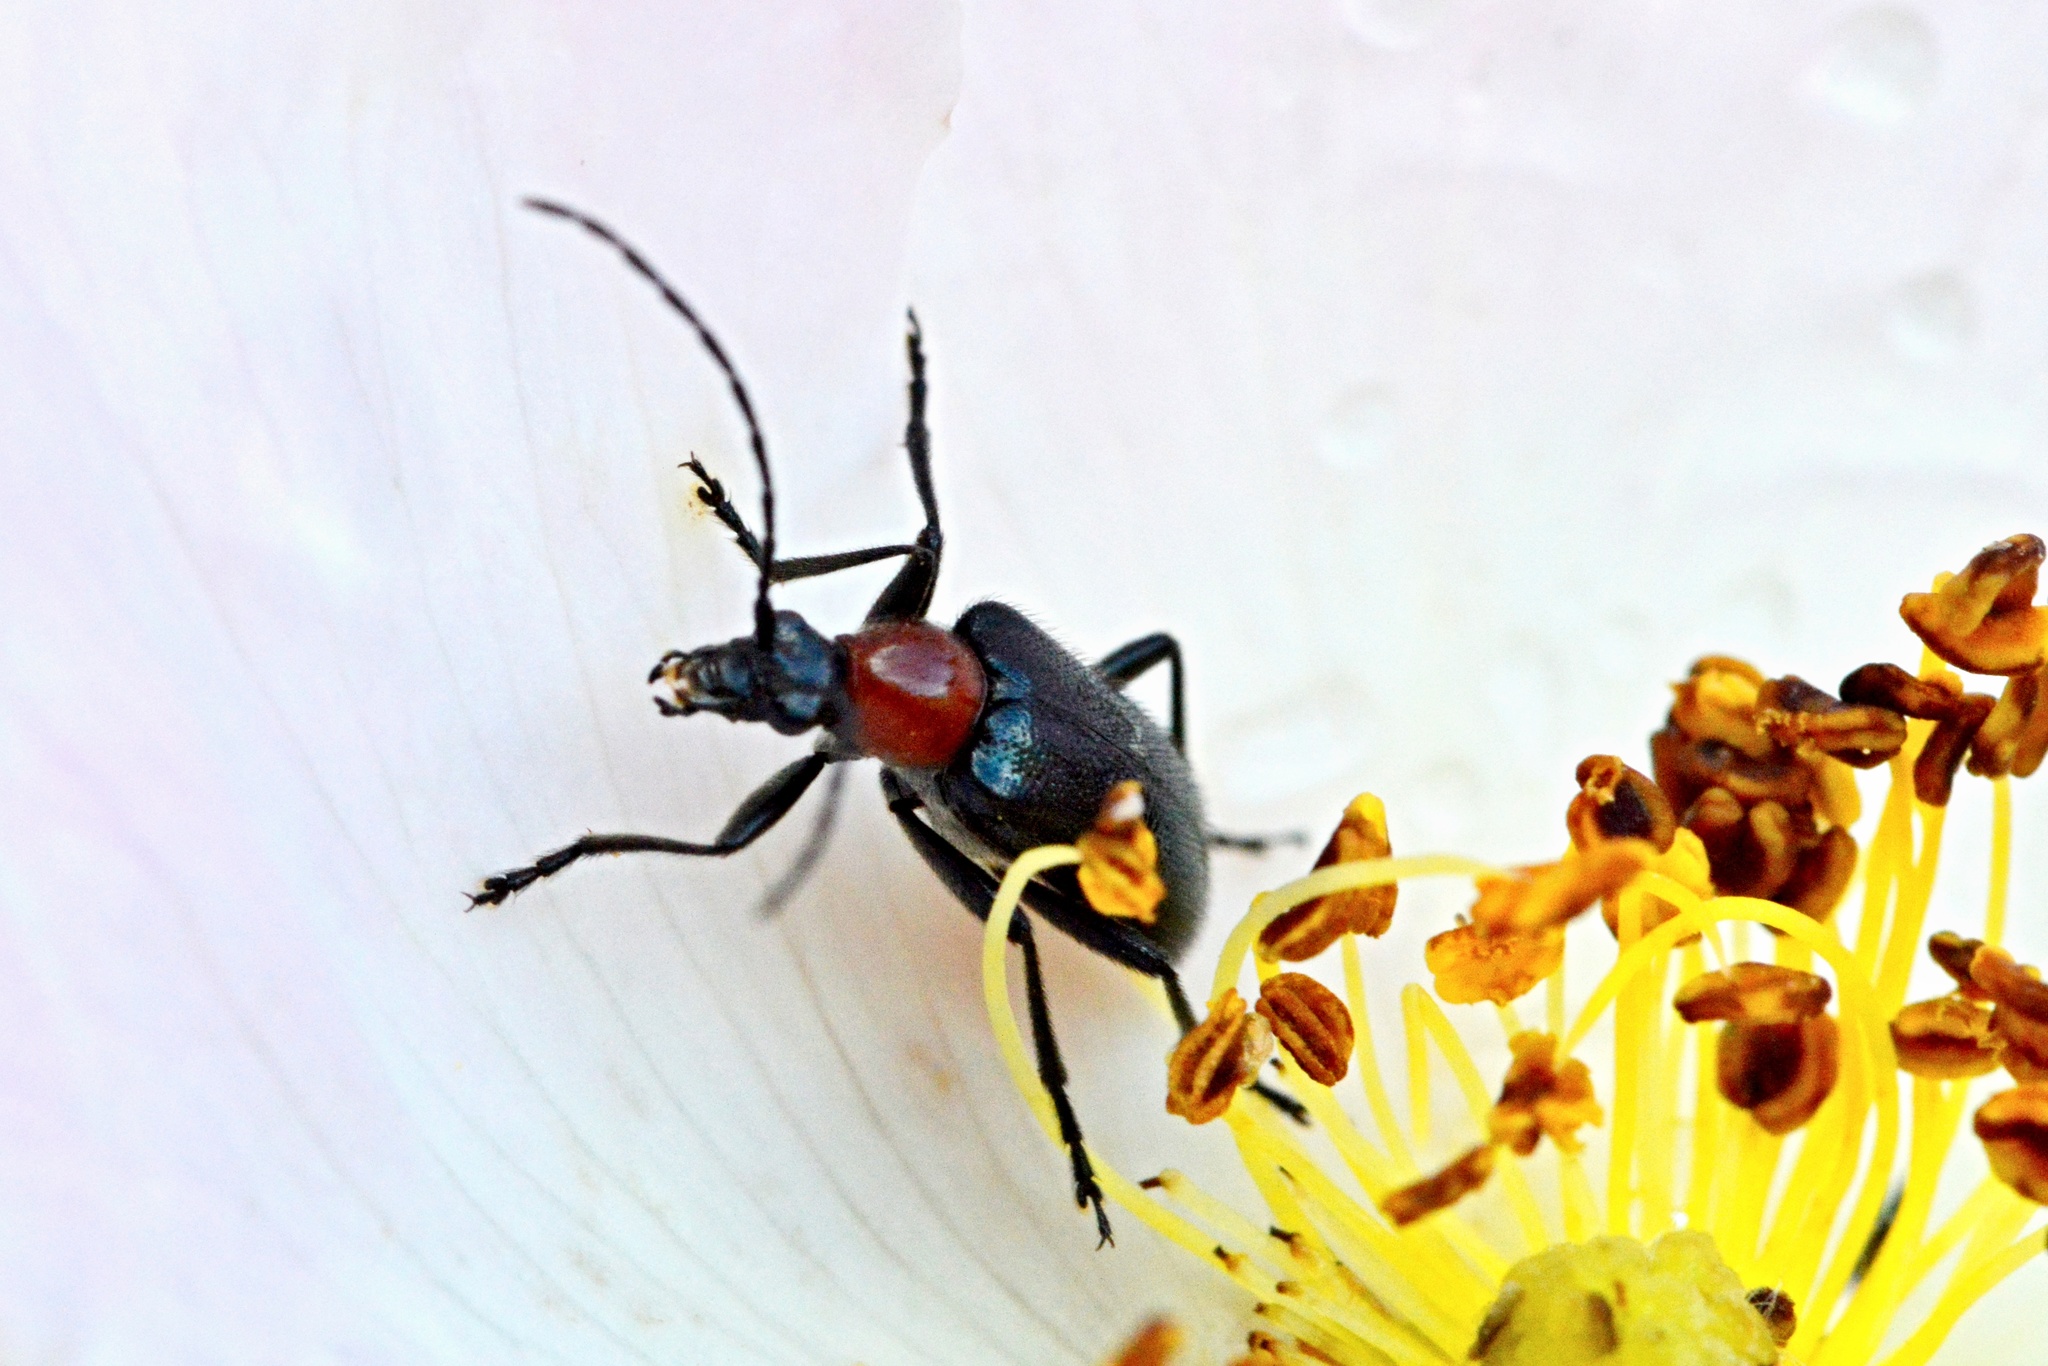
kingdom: Animalia
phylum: Arthropoda
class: Insecta
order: Coleoptera
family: Cerambycidae
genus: Dinoptera
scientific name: Dinoptera collaris
